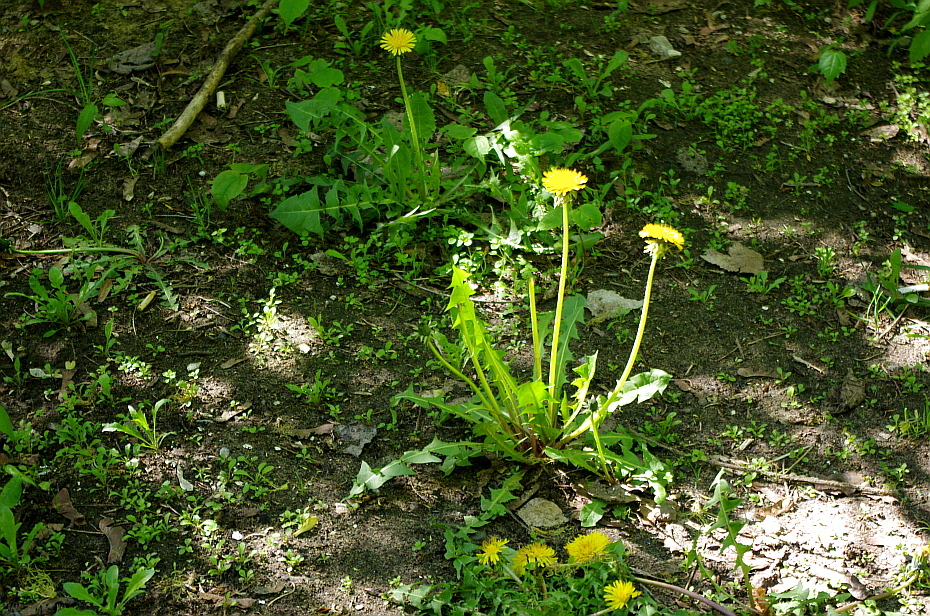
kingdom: Plantae
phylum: Tracheophyta
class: Magnoliopsida
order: Asterales
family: Asteraceae
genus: Taraxacum
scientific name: Taraxacum officinale
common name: Common dandelion
